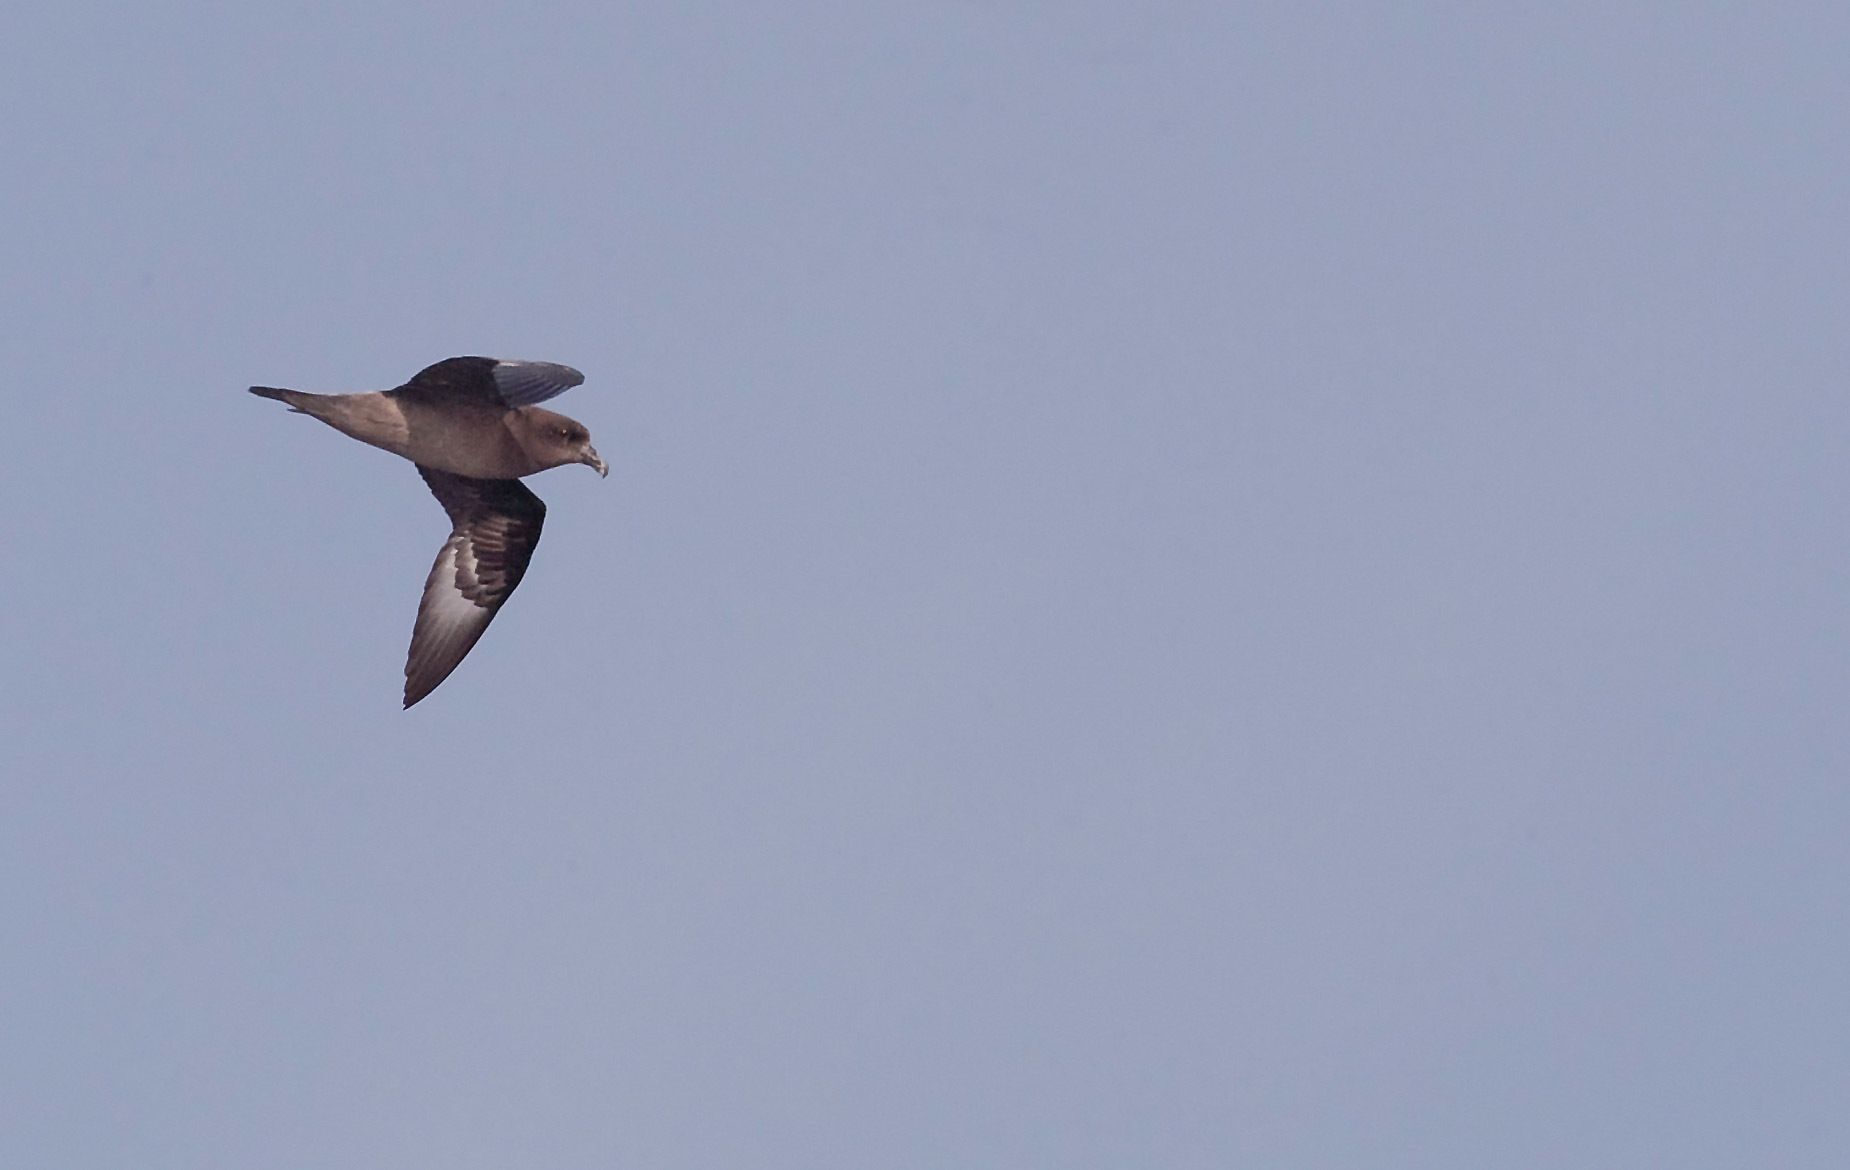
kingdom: Animalia
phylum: Chordata
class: Aves
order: Procellariiformes
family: Procellariidae
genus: Pterodroma
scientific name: Pterodroma solandri
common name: Providence petrel
